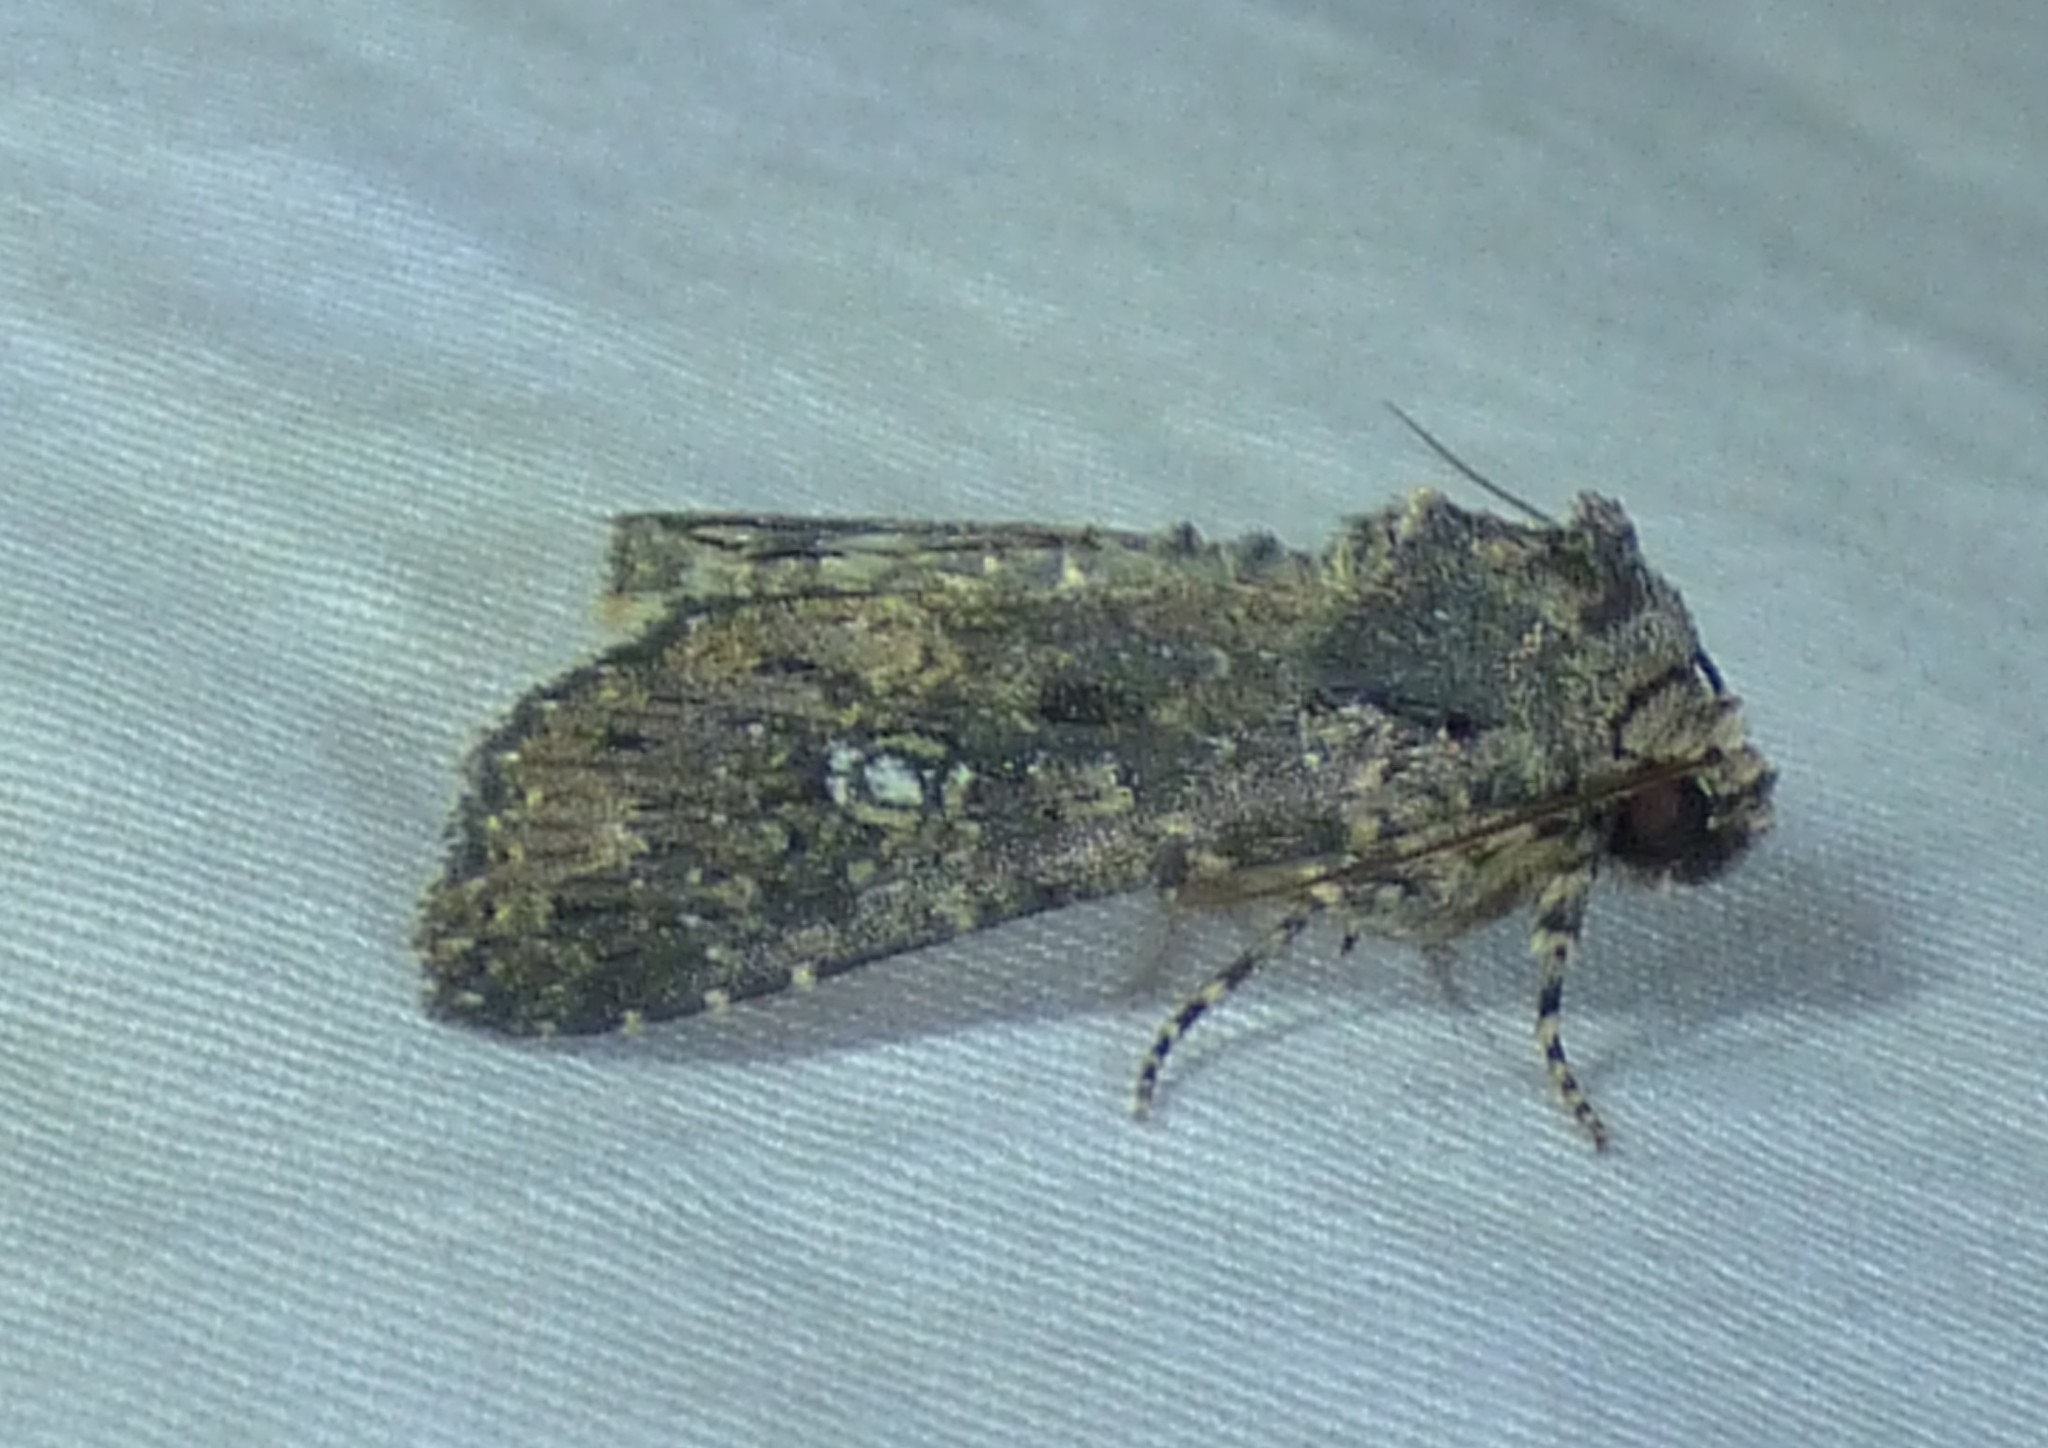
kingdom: Animalia
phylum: Arthropoda
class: Insecta
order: Lepidoptera
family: Noctuidae
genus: Condica
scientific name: Condica vecors
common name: Dusky groundling
